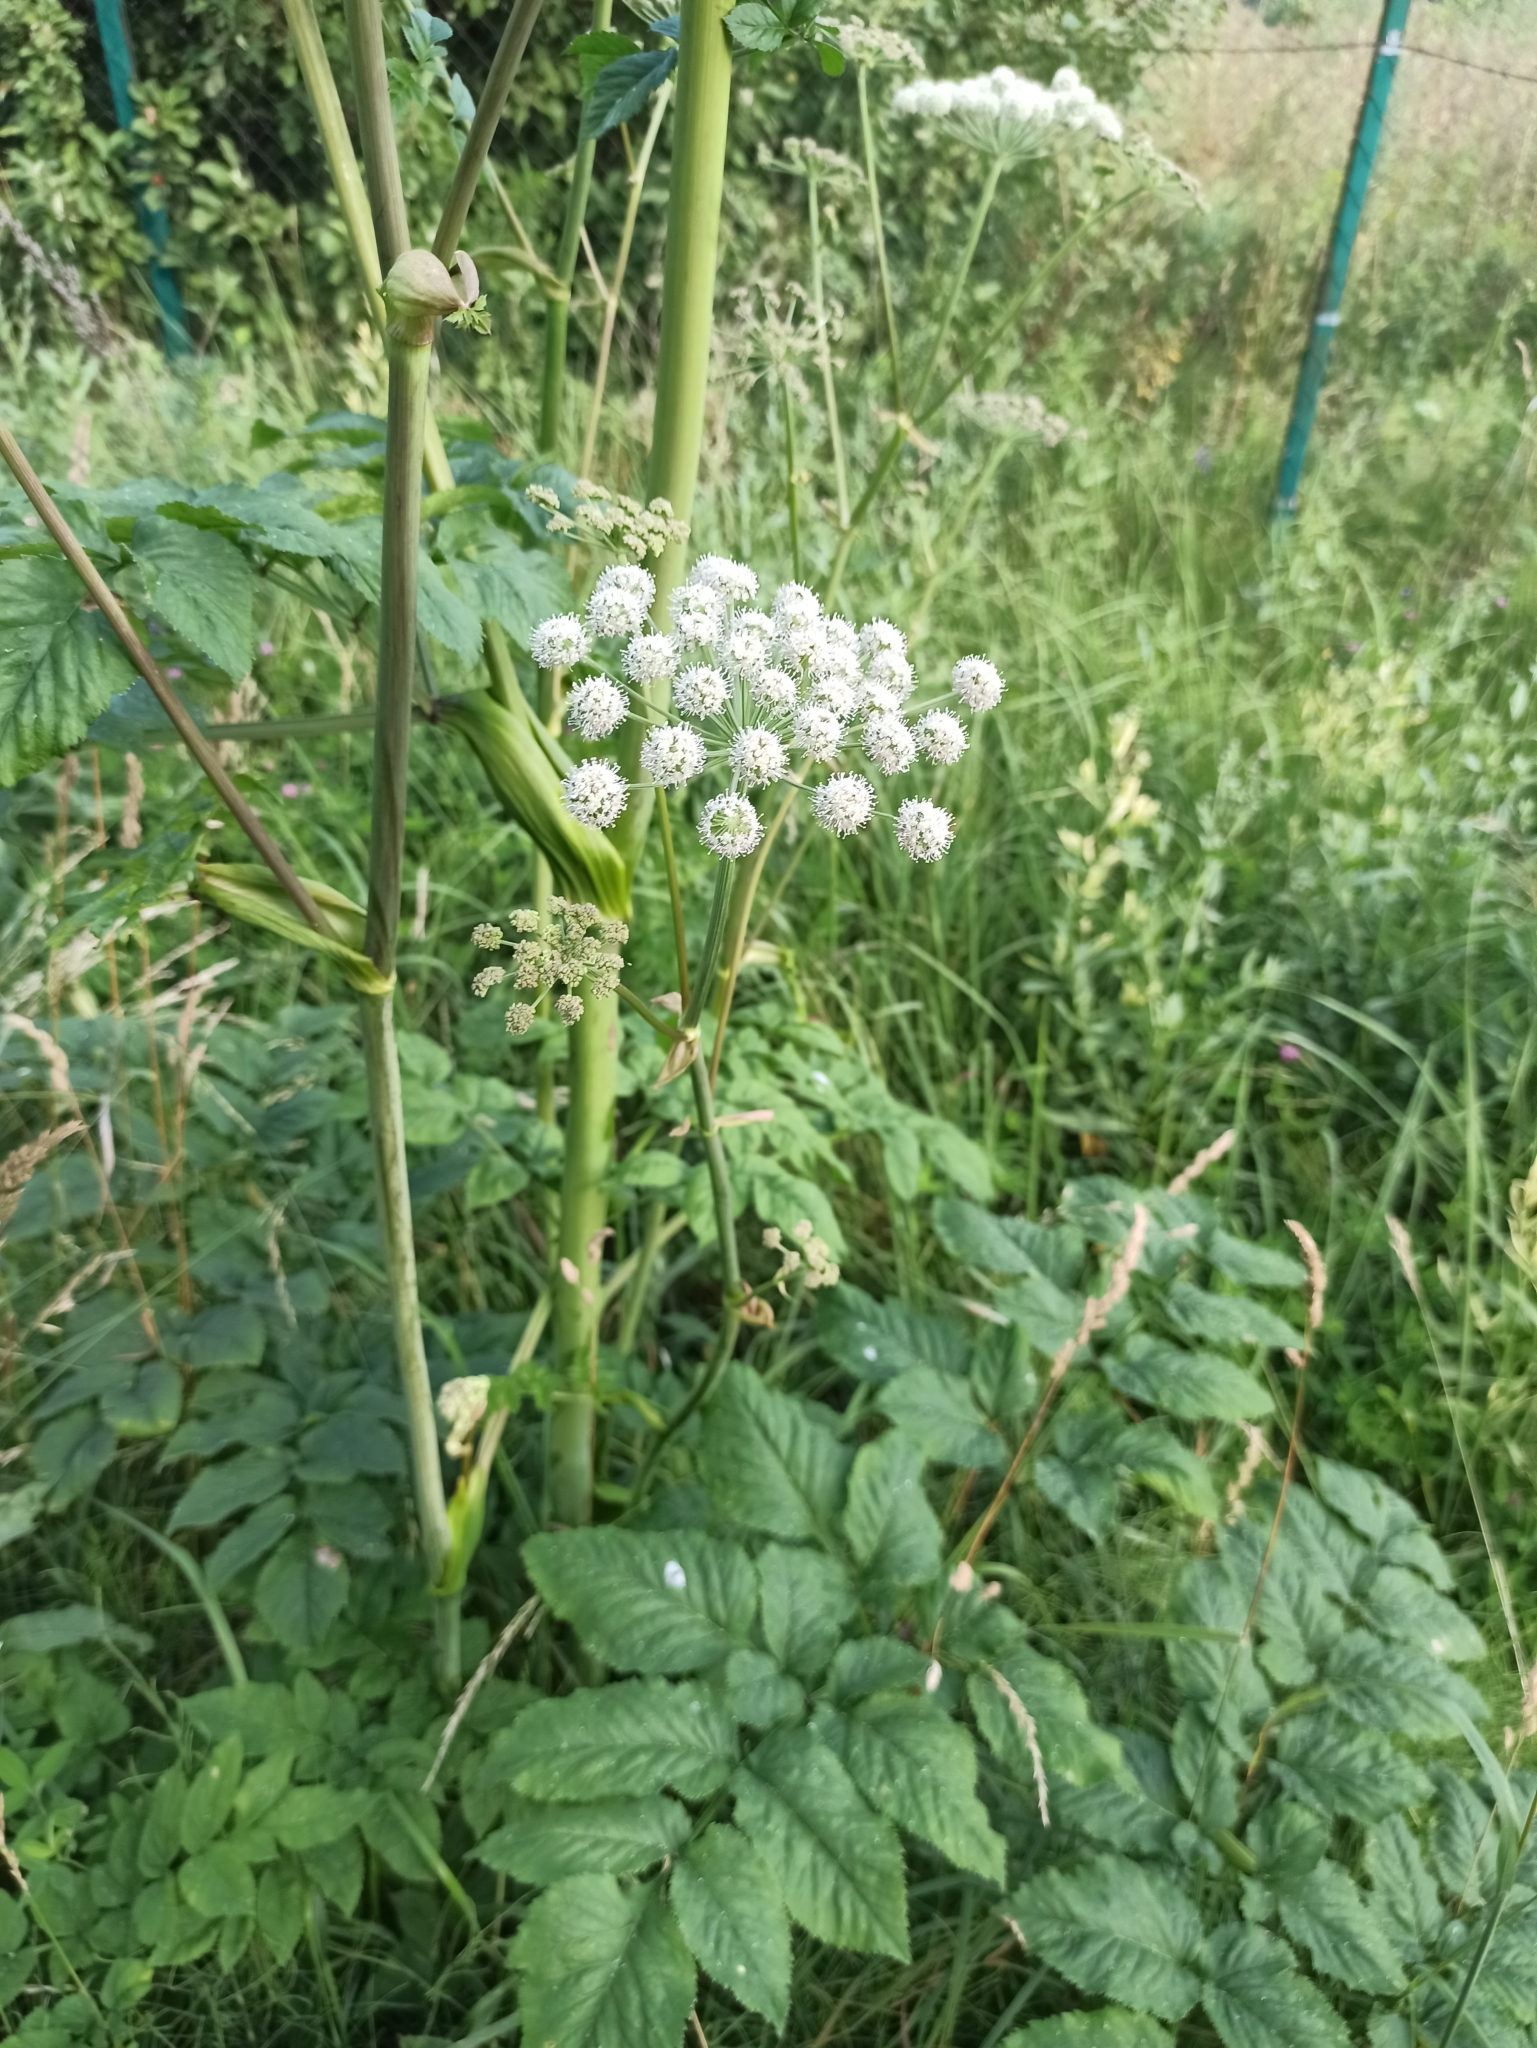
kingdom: Plantae
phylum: Tracheophyta
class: Magnoliopsida
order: Apiales
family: Apiaceae
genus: Angelica
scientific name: Angelica sylvestris
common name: Wild angelica
